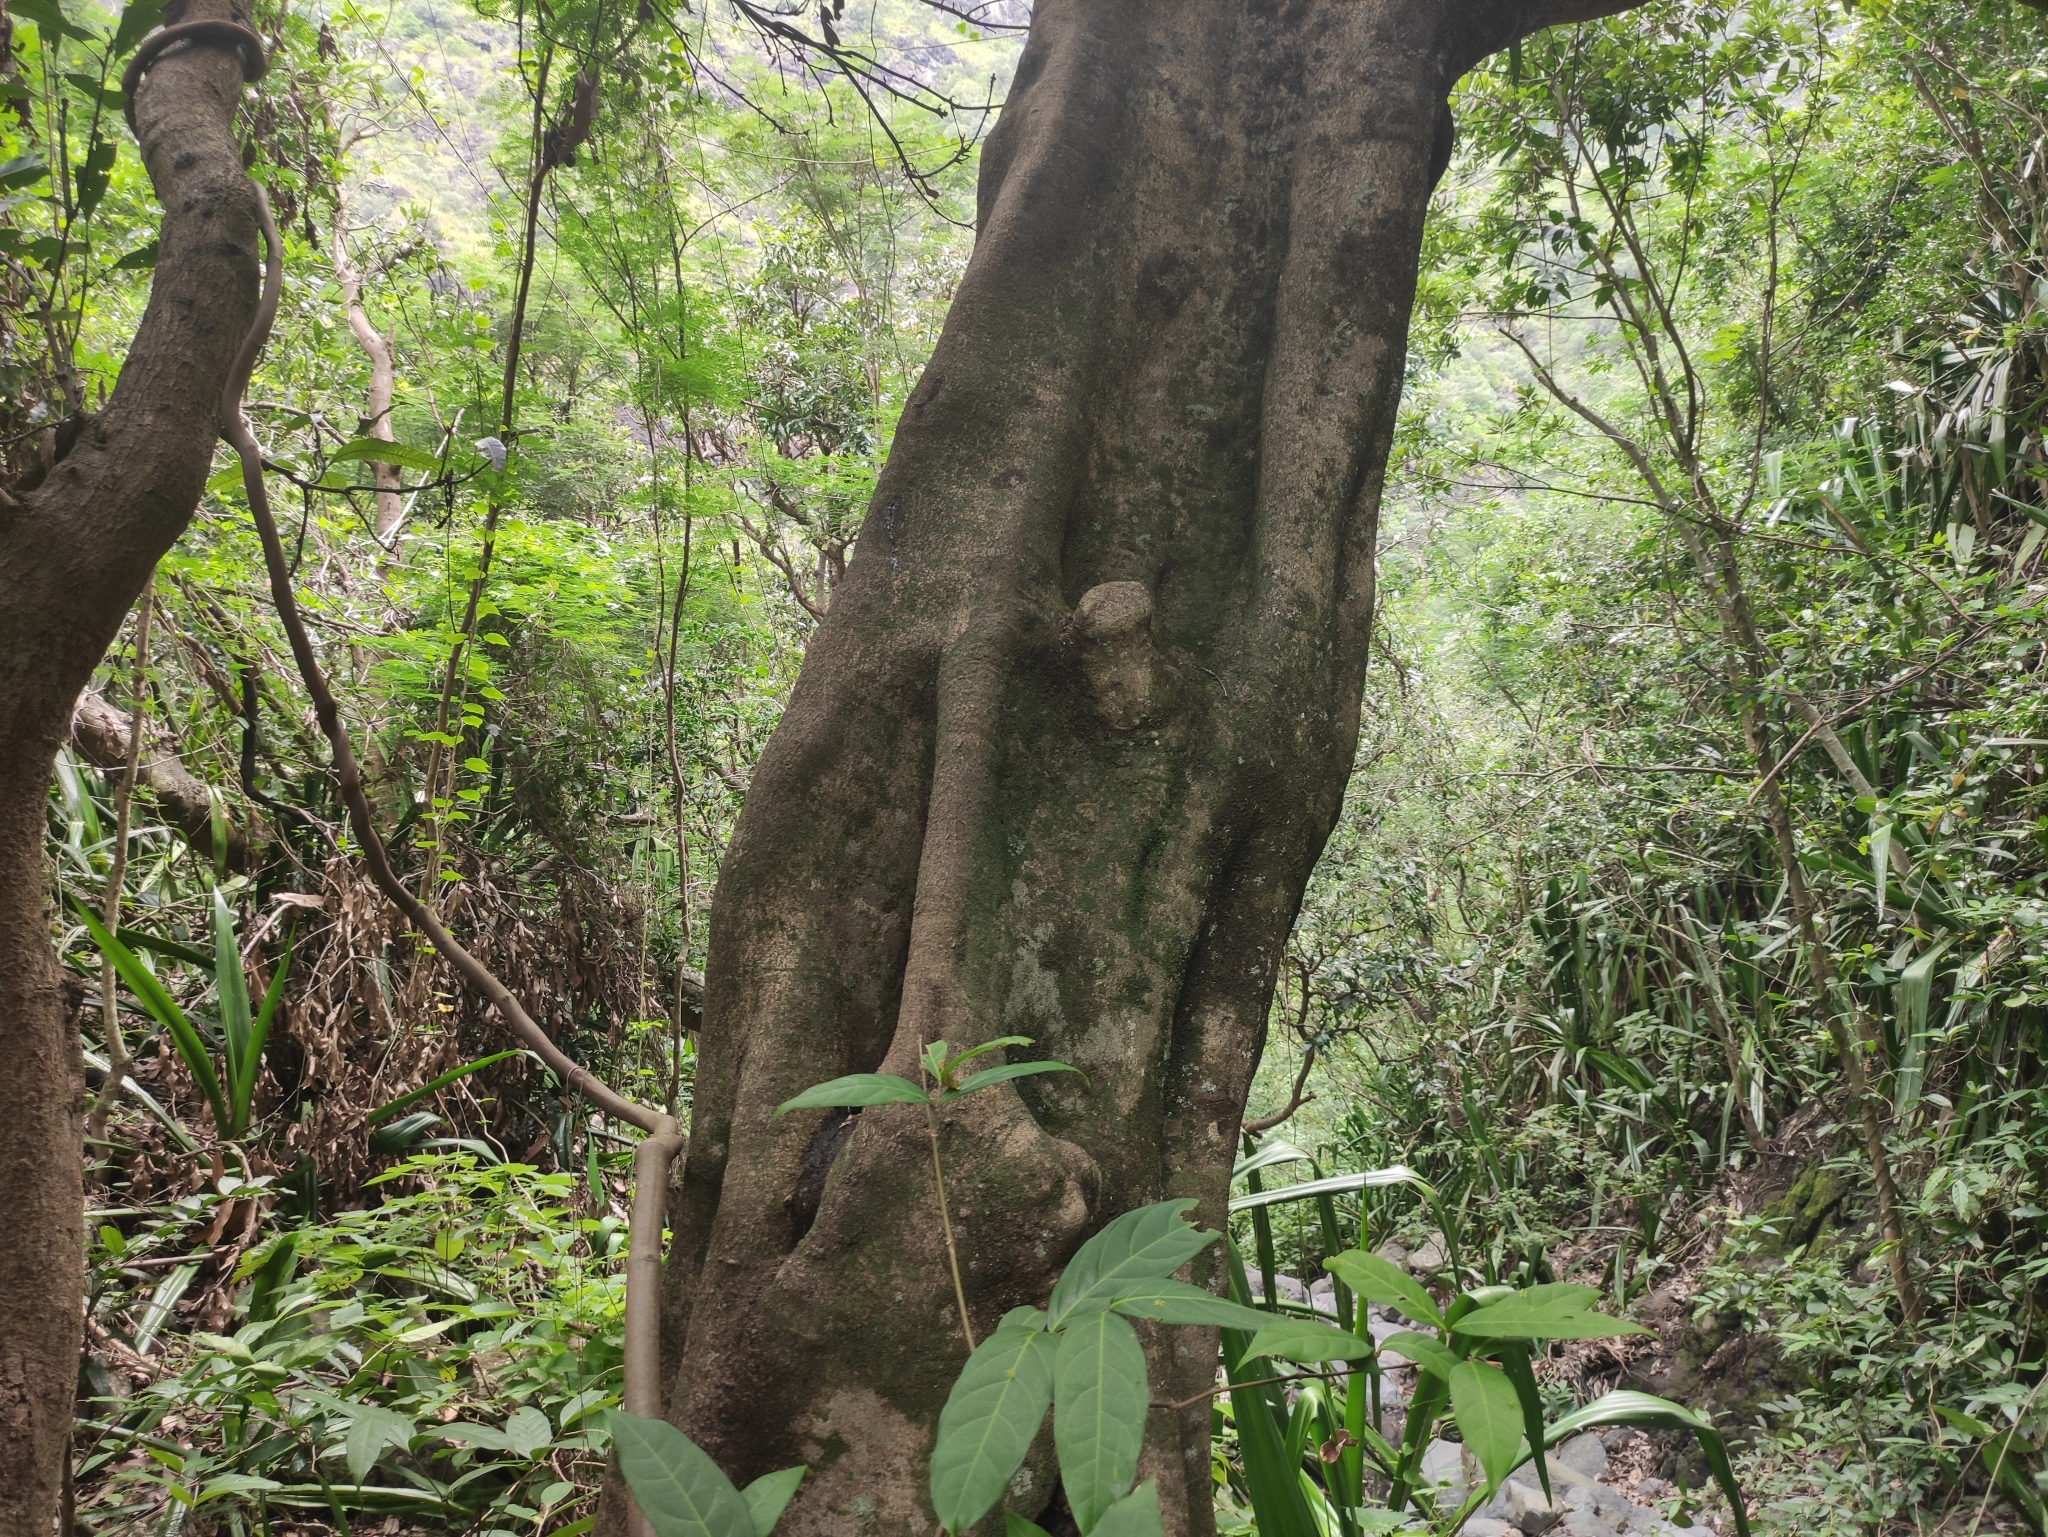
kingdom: Plantae
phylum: Tracheophyta
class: Magnoliopsida
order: Celastrales
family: Celastraceae
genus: Elaeodendron
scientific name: Elaeodendron orientale
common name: False olive
